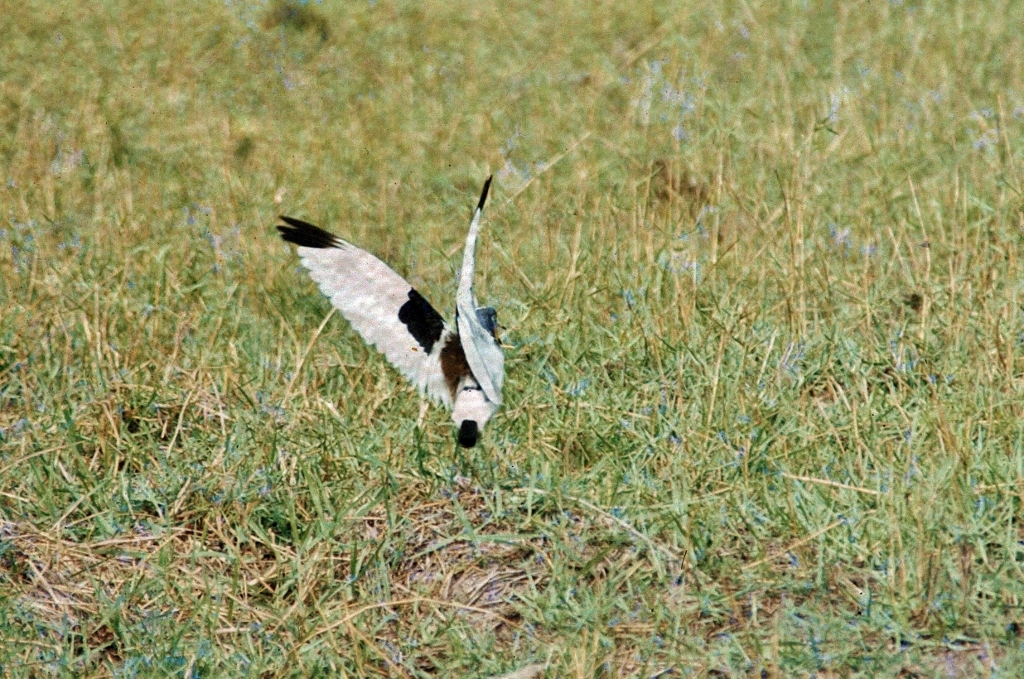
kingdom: Animalia
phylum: Chordata
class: Aves
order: Charadriiformes
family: Charadriidae
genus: Vanellus
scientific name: Vanellus albiceps
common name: White-crowned lapwing
